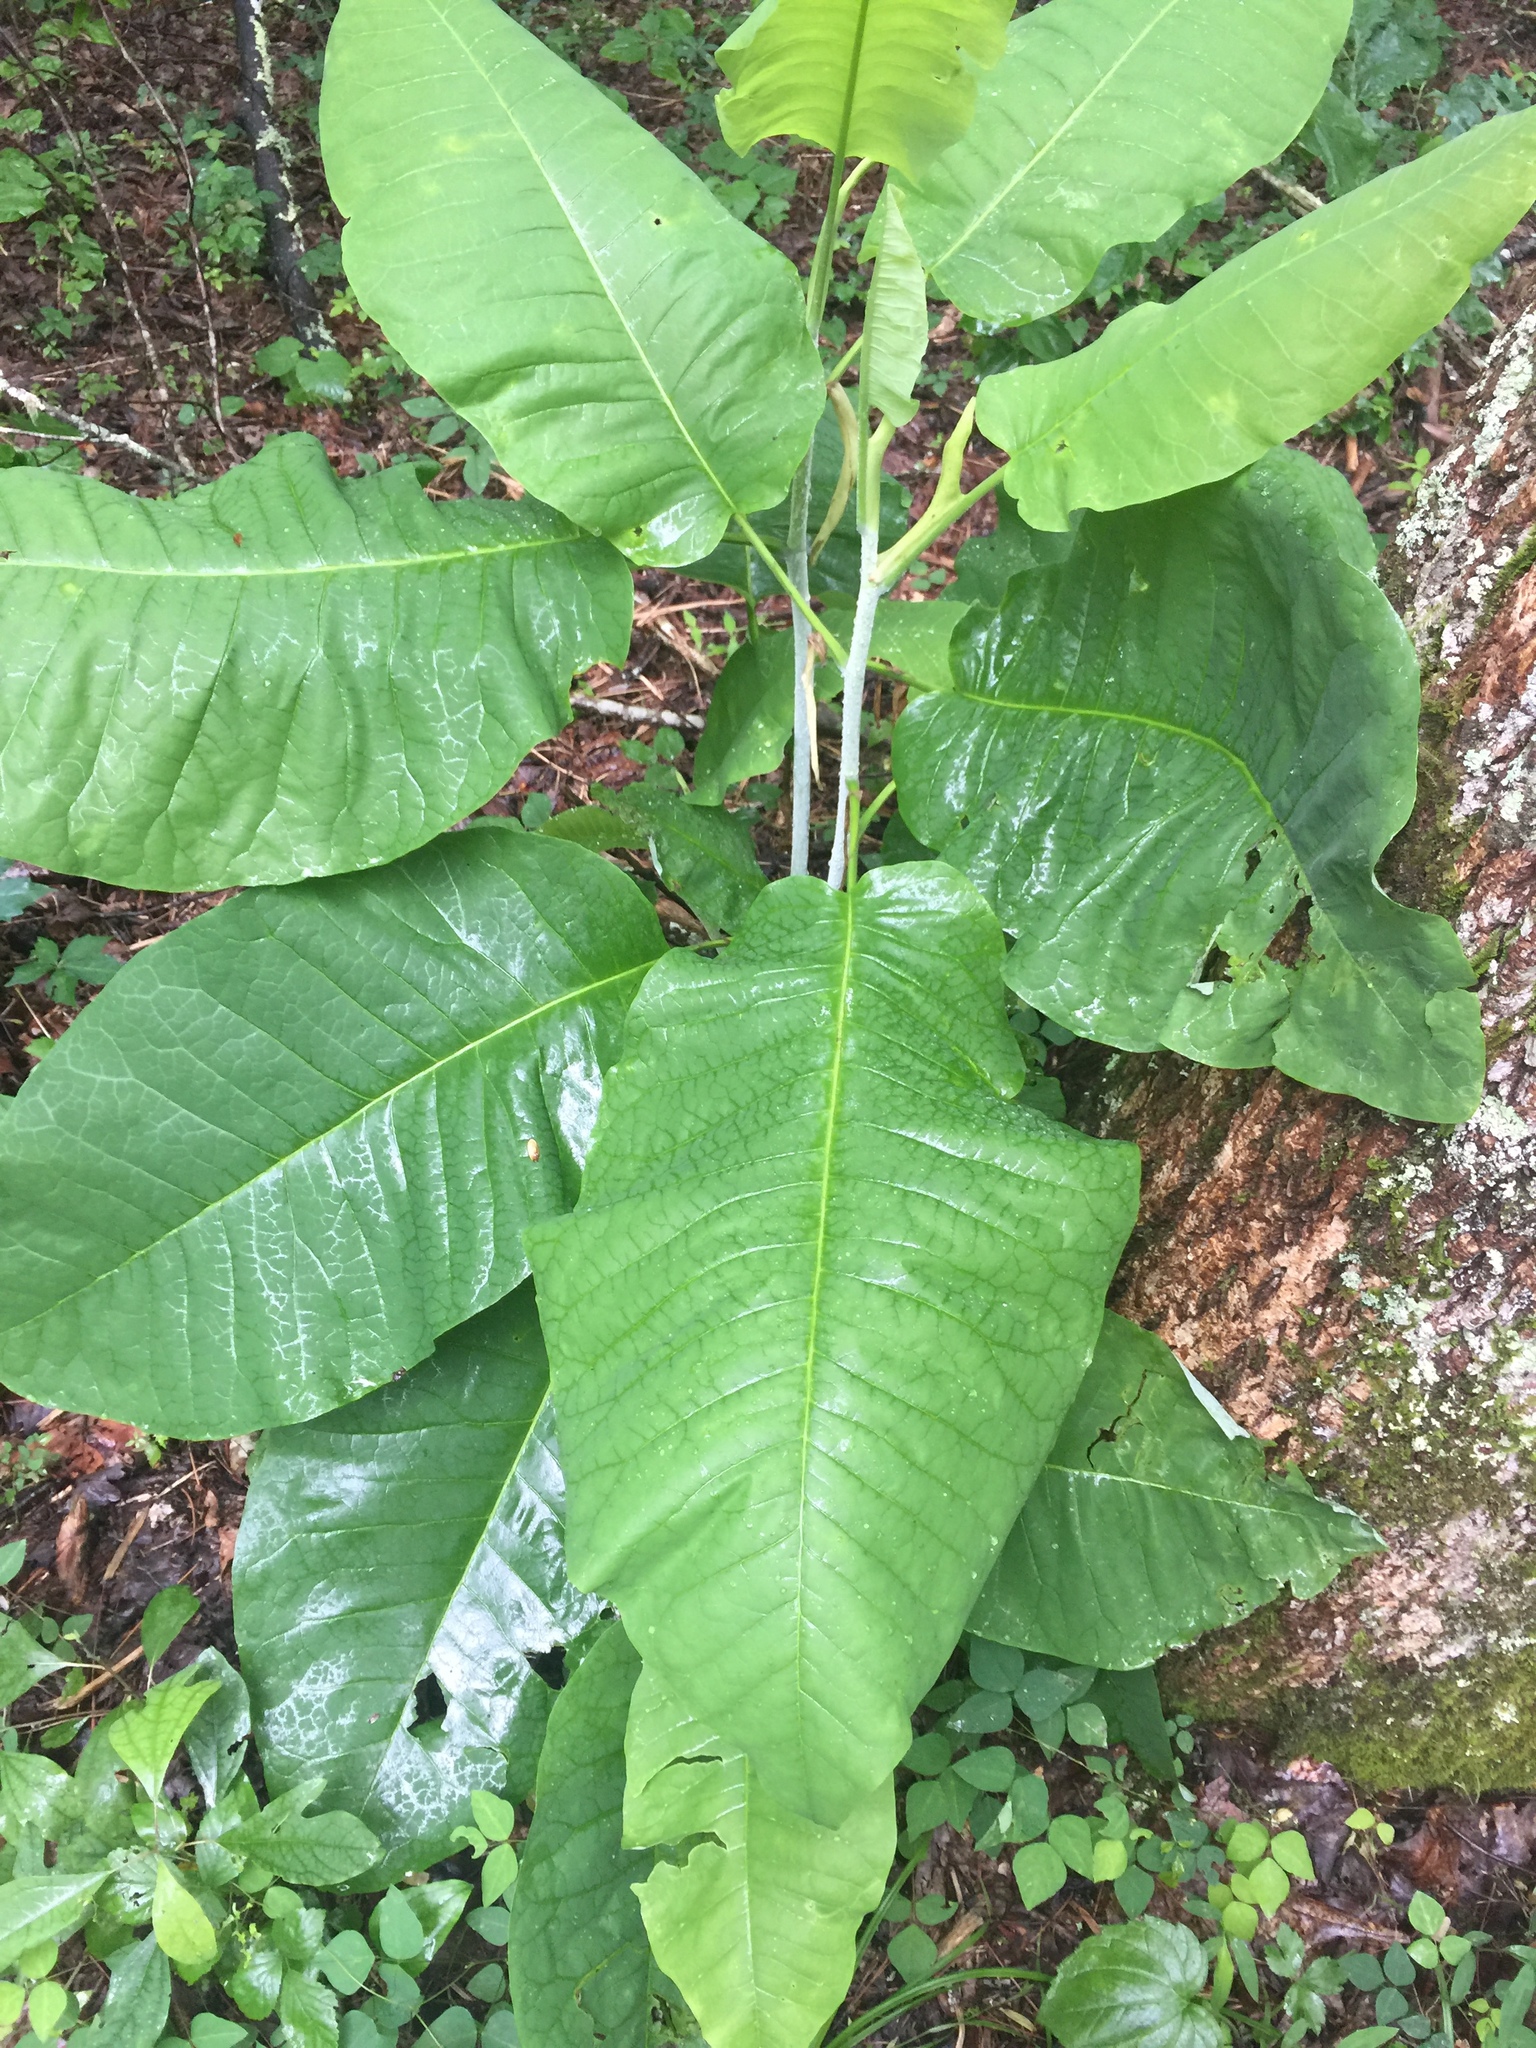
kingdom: Plantae
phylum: Tracheophyta
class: Magnoliopsida
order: Magnoliales
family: Magnoliaceae
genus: Magnolia
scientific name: Magnolia macrophylla
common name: Big-leaf magnolia
